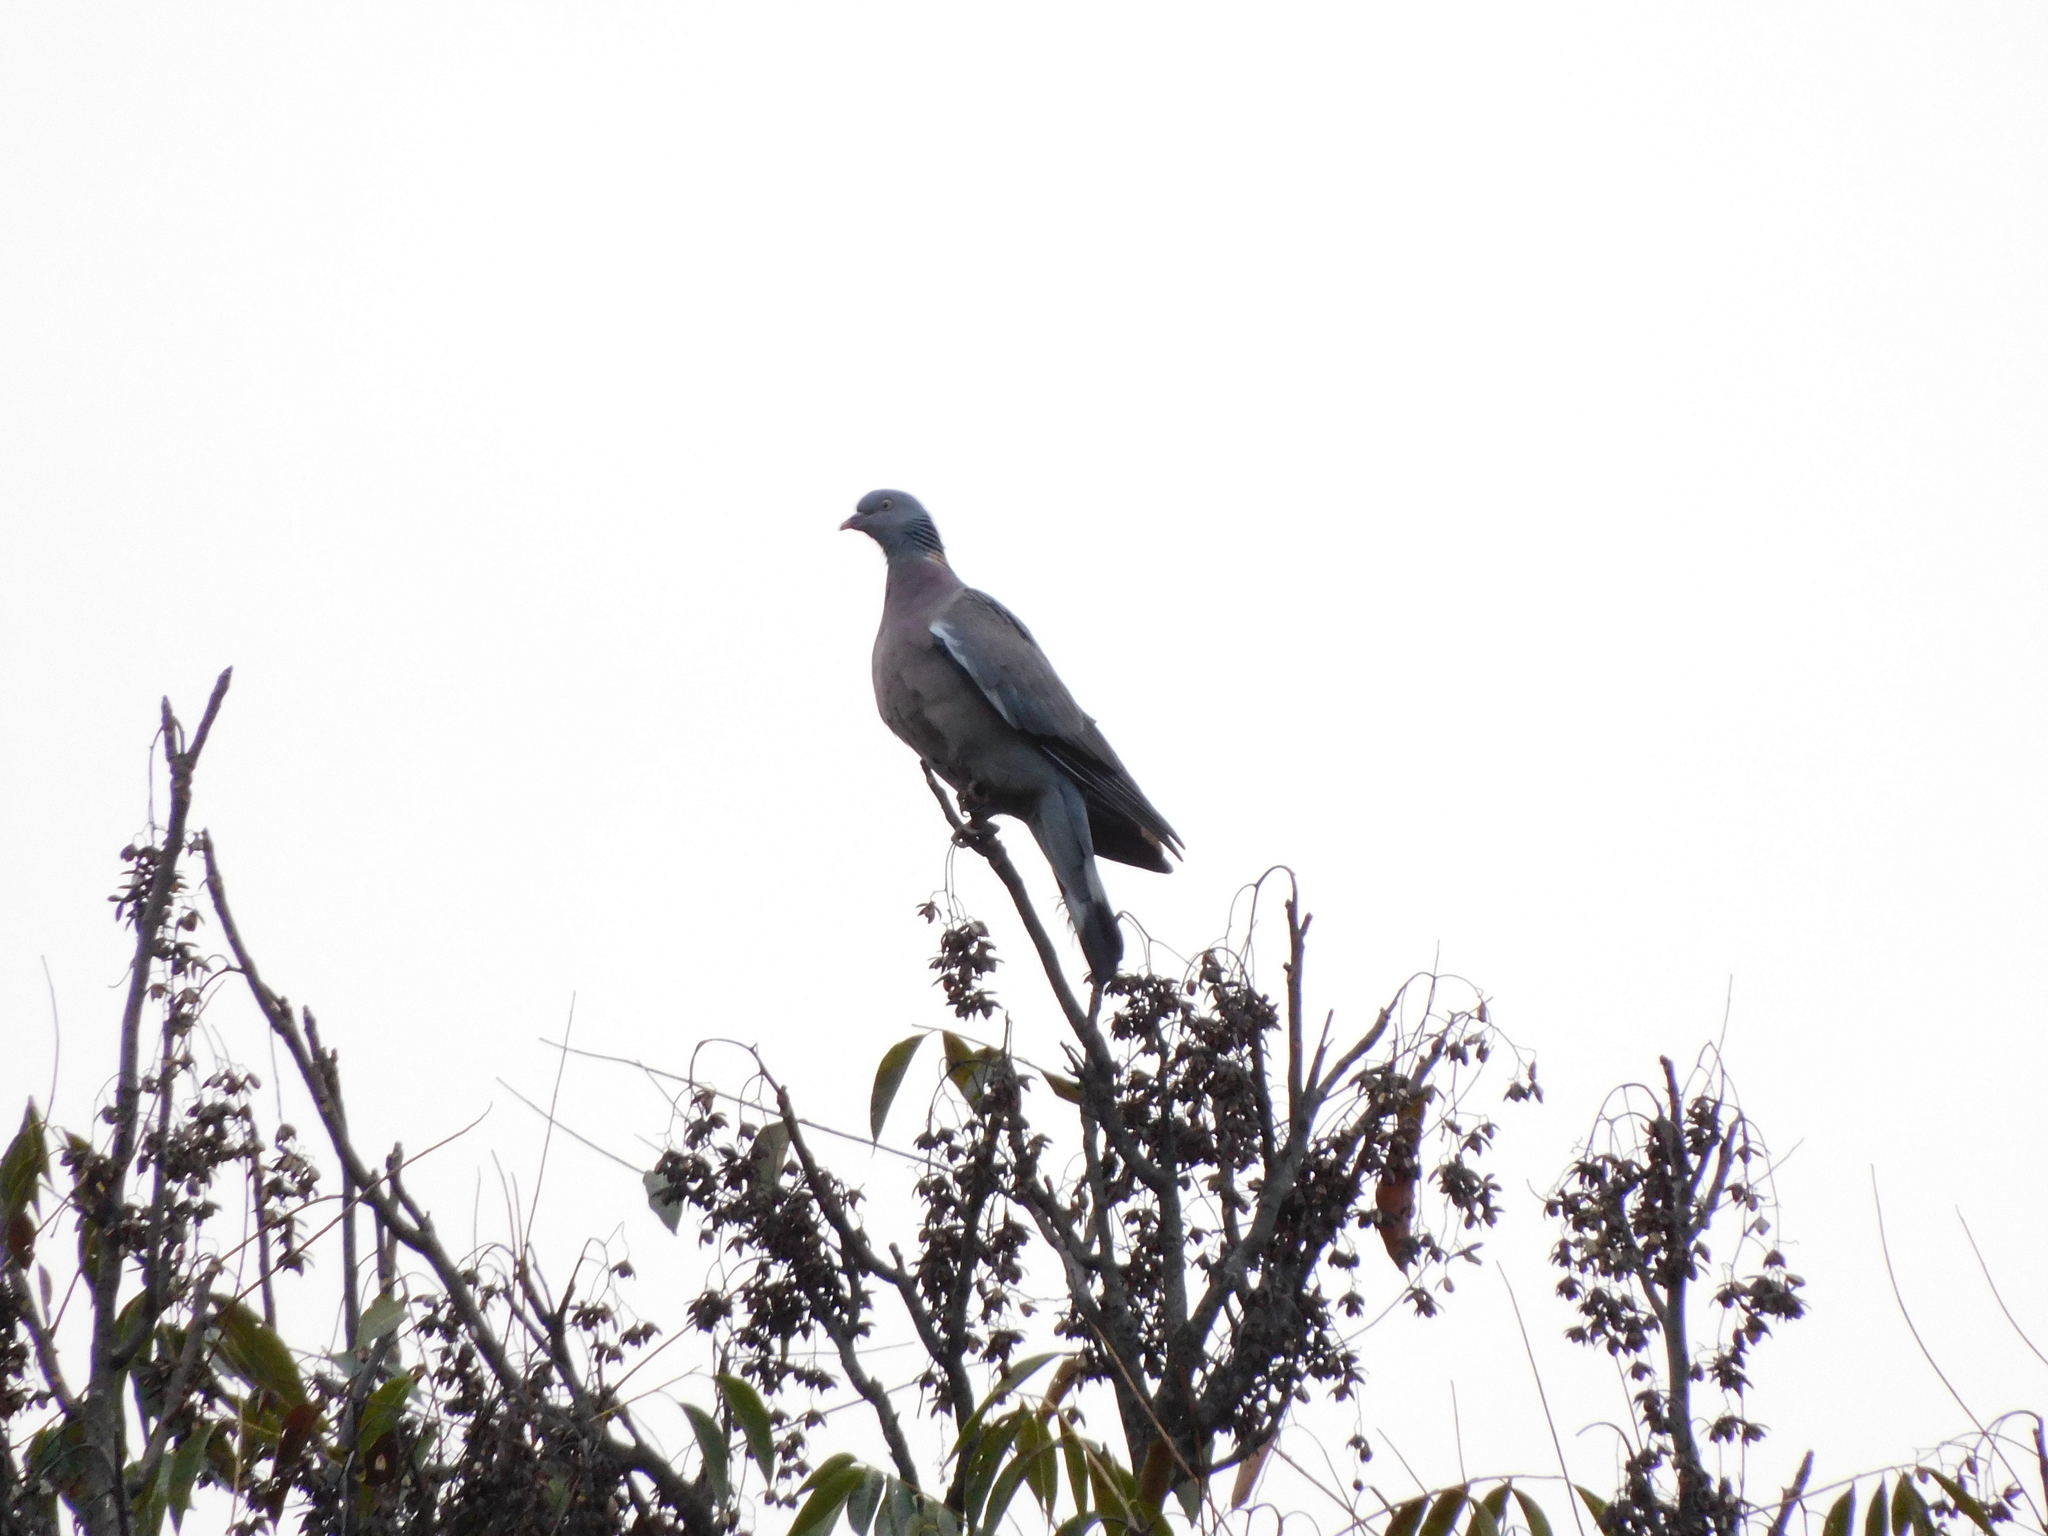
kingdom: Animalia
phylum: Chordata
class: Aves
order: Columbiformes
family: Columbidae
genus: Columba
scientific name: Columba palumbus
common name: Common wood pigeon
